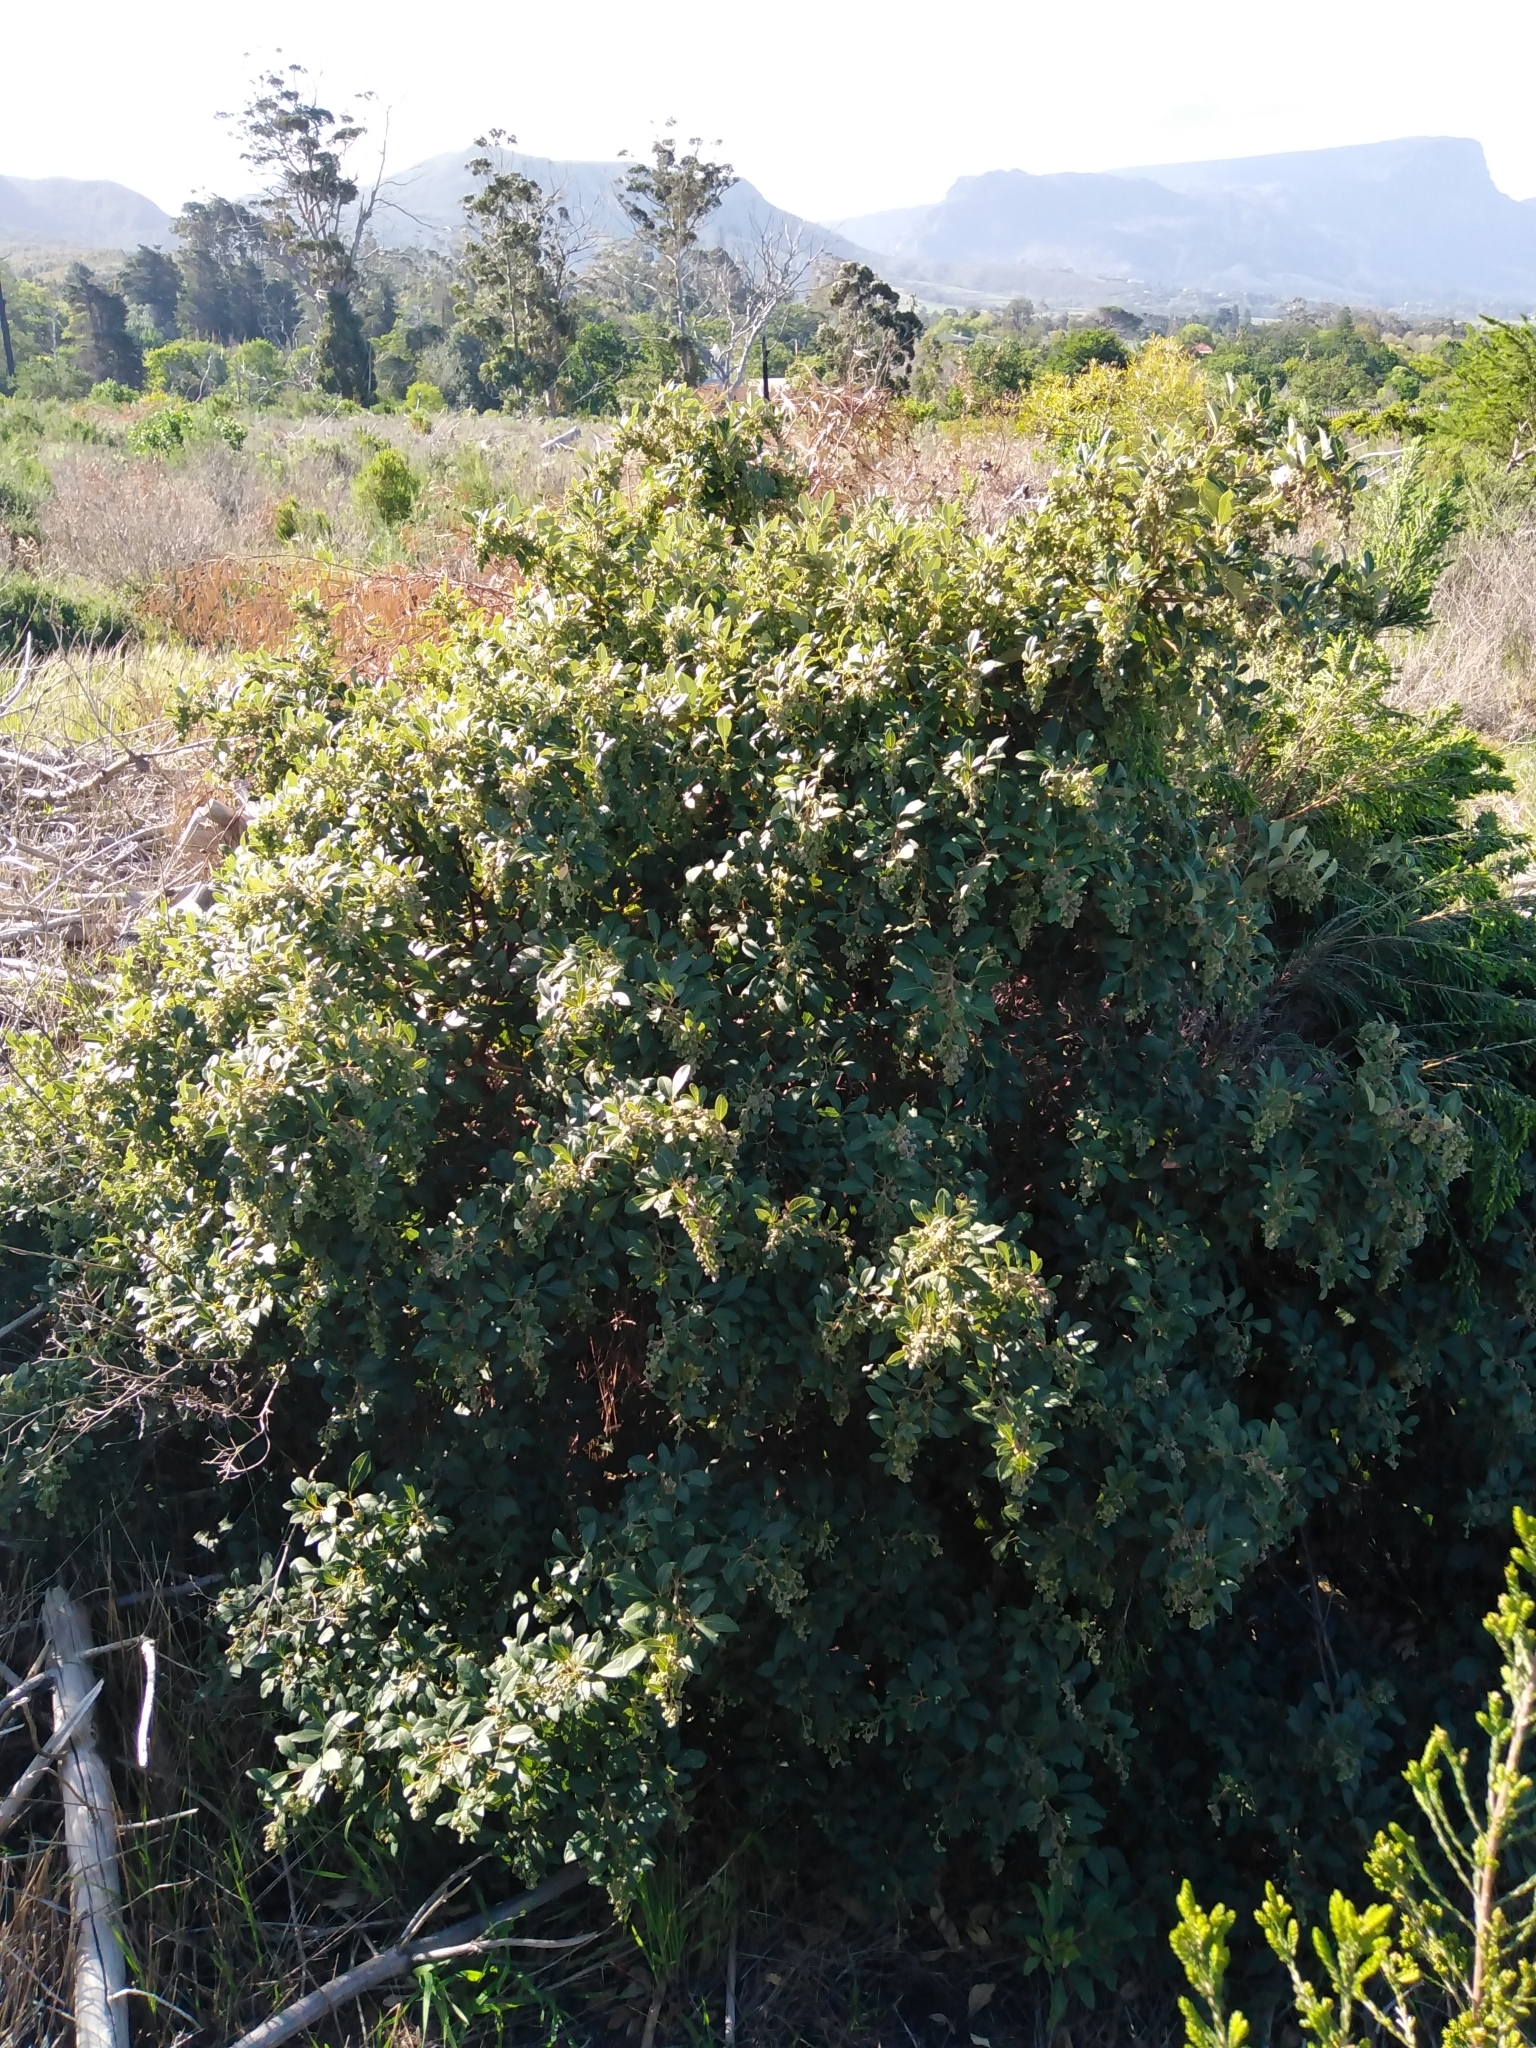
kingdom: Plantae
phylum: Tracheophyta
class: Magnoliopsida
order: Sapindales
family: Anacardiaceae
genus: Searsia
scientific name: Searsia tomentosa
